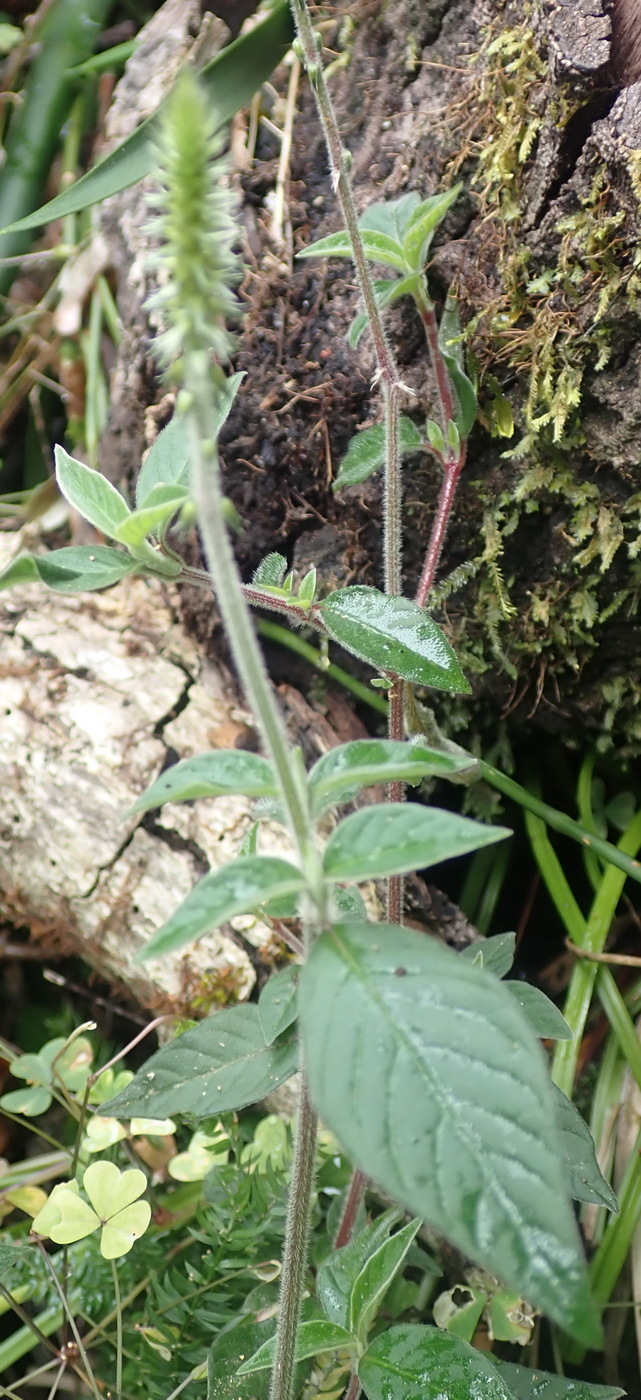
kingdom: Plantae
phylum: Tracheophyta
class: Magnoliopsida
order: Caryophyllales
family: Amaranthaceae
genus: Achyranthes
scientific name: Achyranthes aspera
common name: Devil's horsewhip
